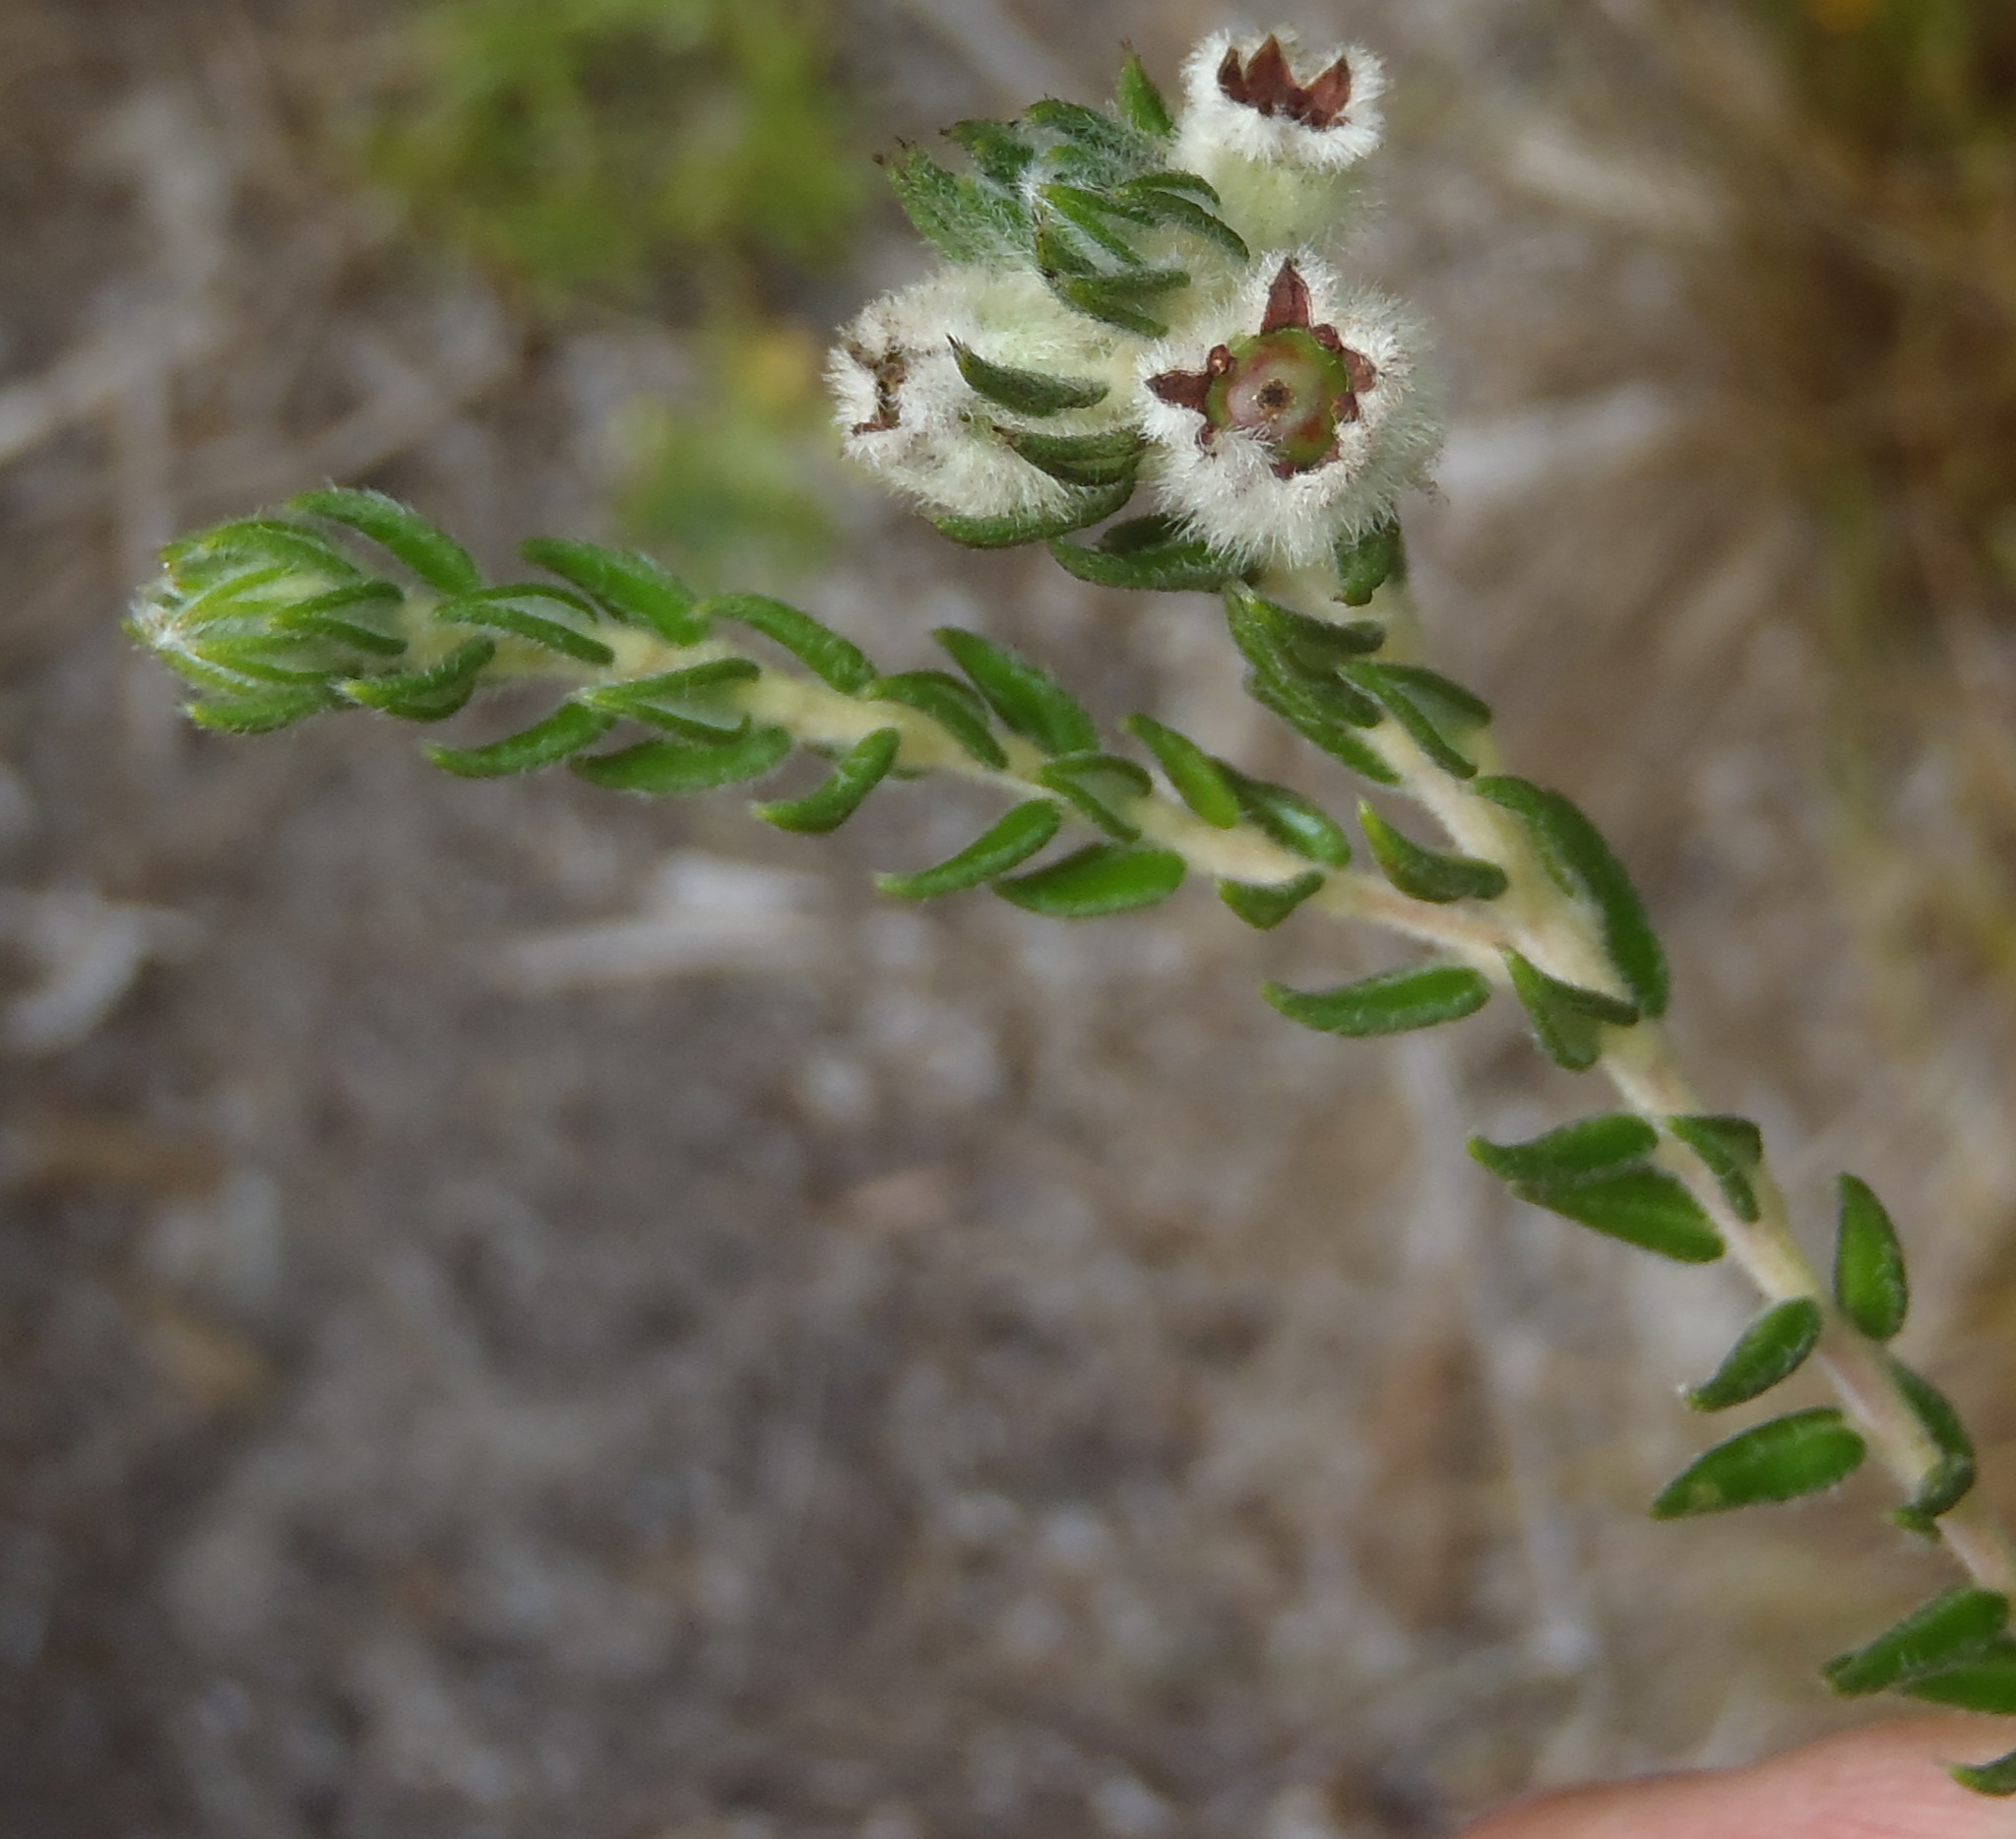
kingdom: Plantae
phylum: Tracheophyta
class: Magnoliopsida
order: Rosales
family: Rhamnaceae
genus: Phylica
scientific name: Phylica purpurea
